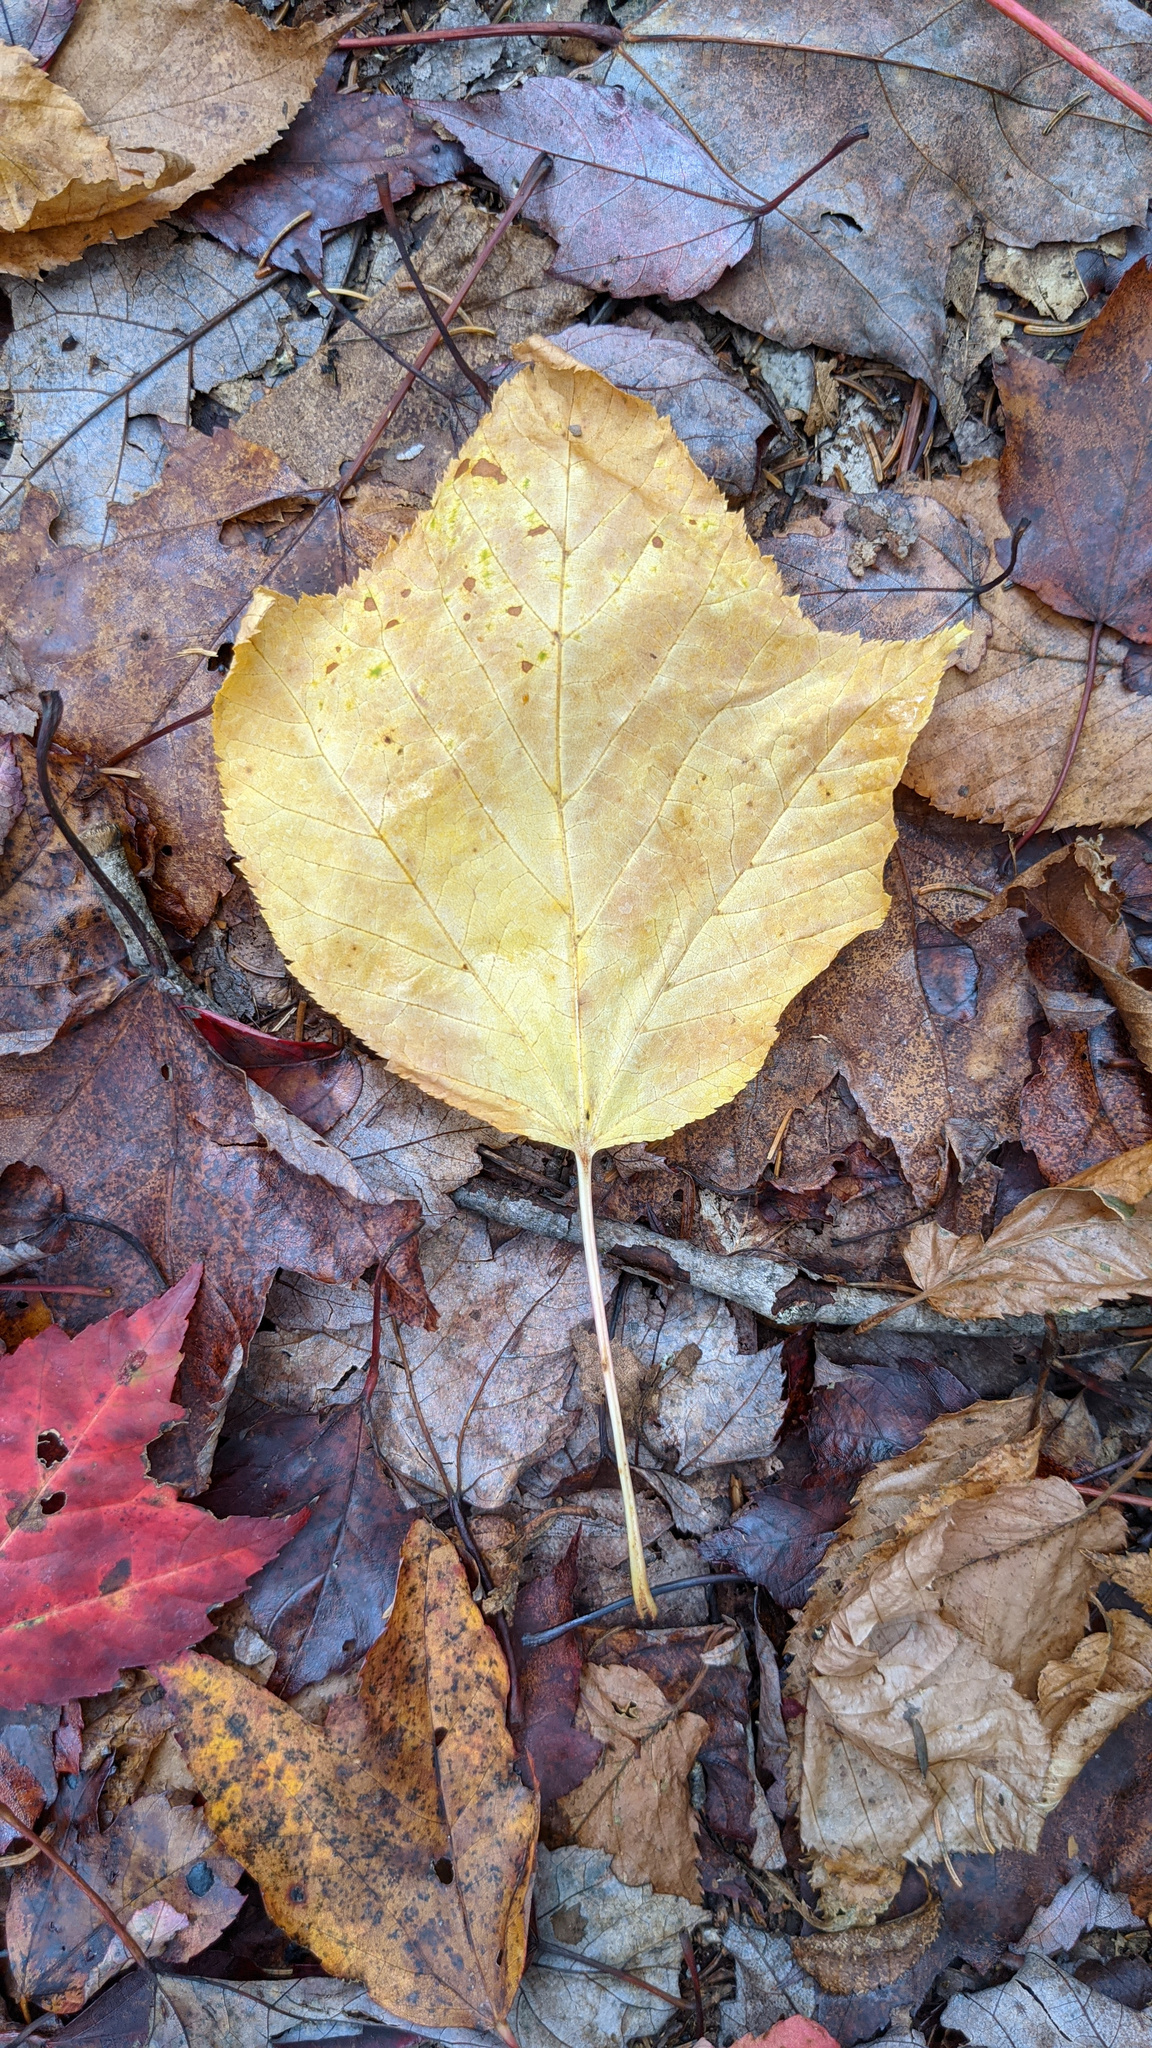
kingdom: Plantae
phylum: Tracheophyta
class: Magnoliopsida
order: Sapindales
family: Sapindaceae
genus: Acer
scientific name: Acer pensylvanicum
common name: Moosewood
